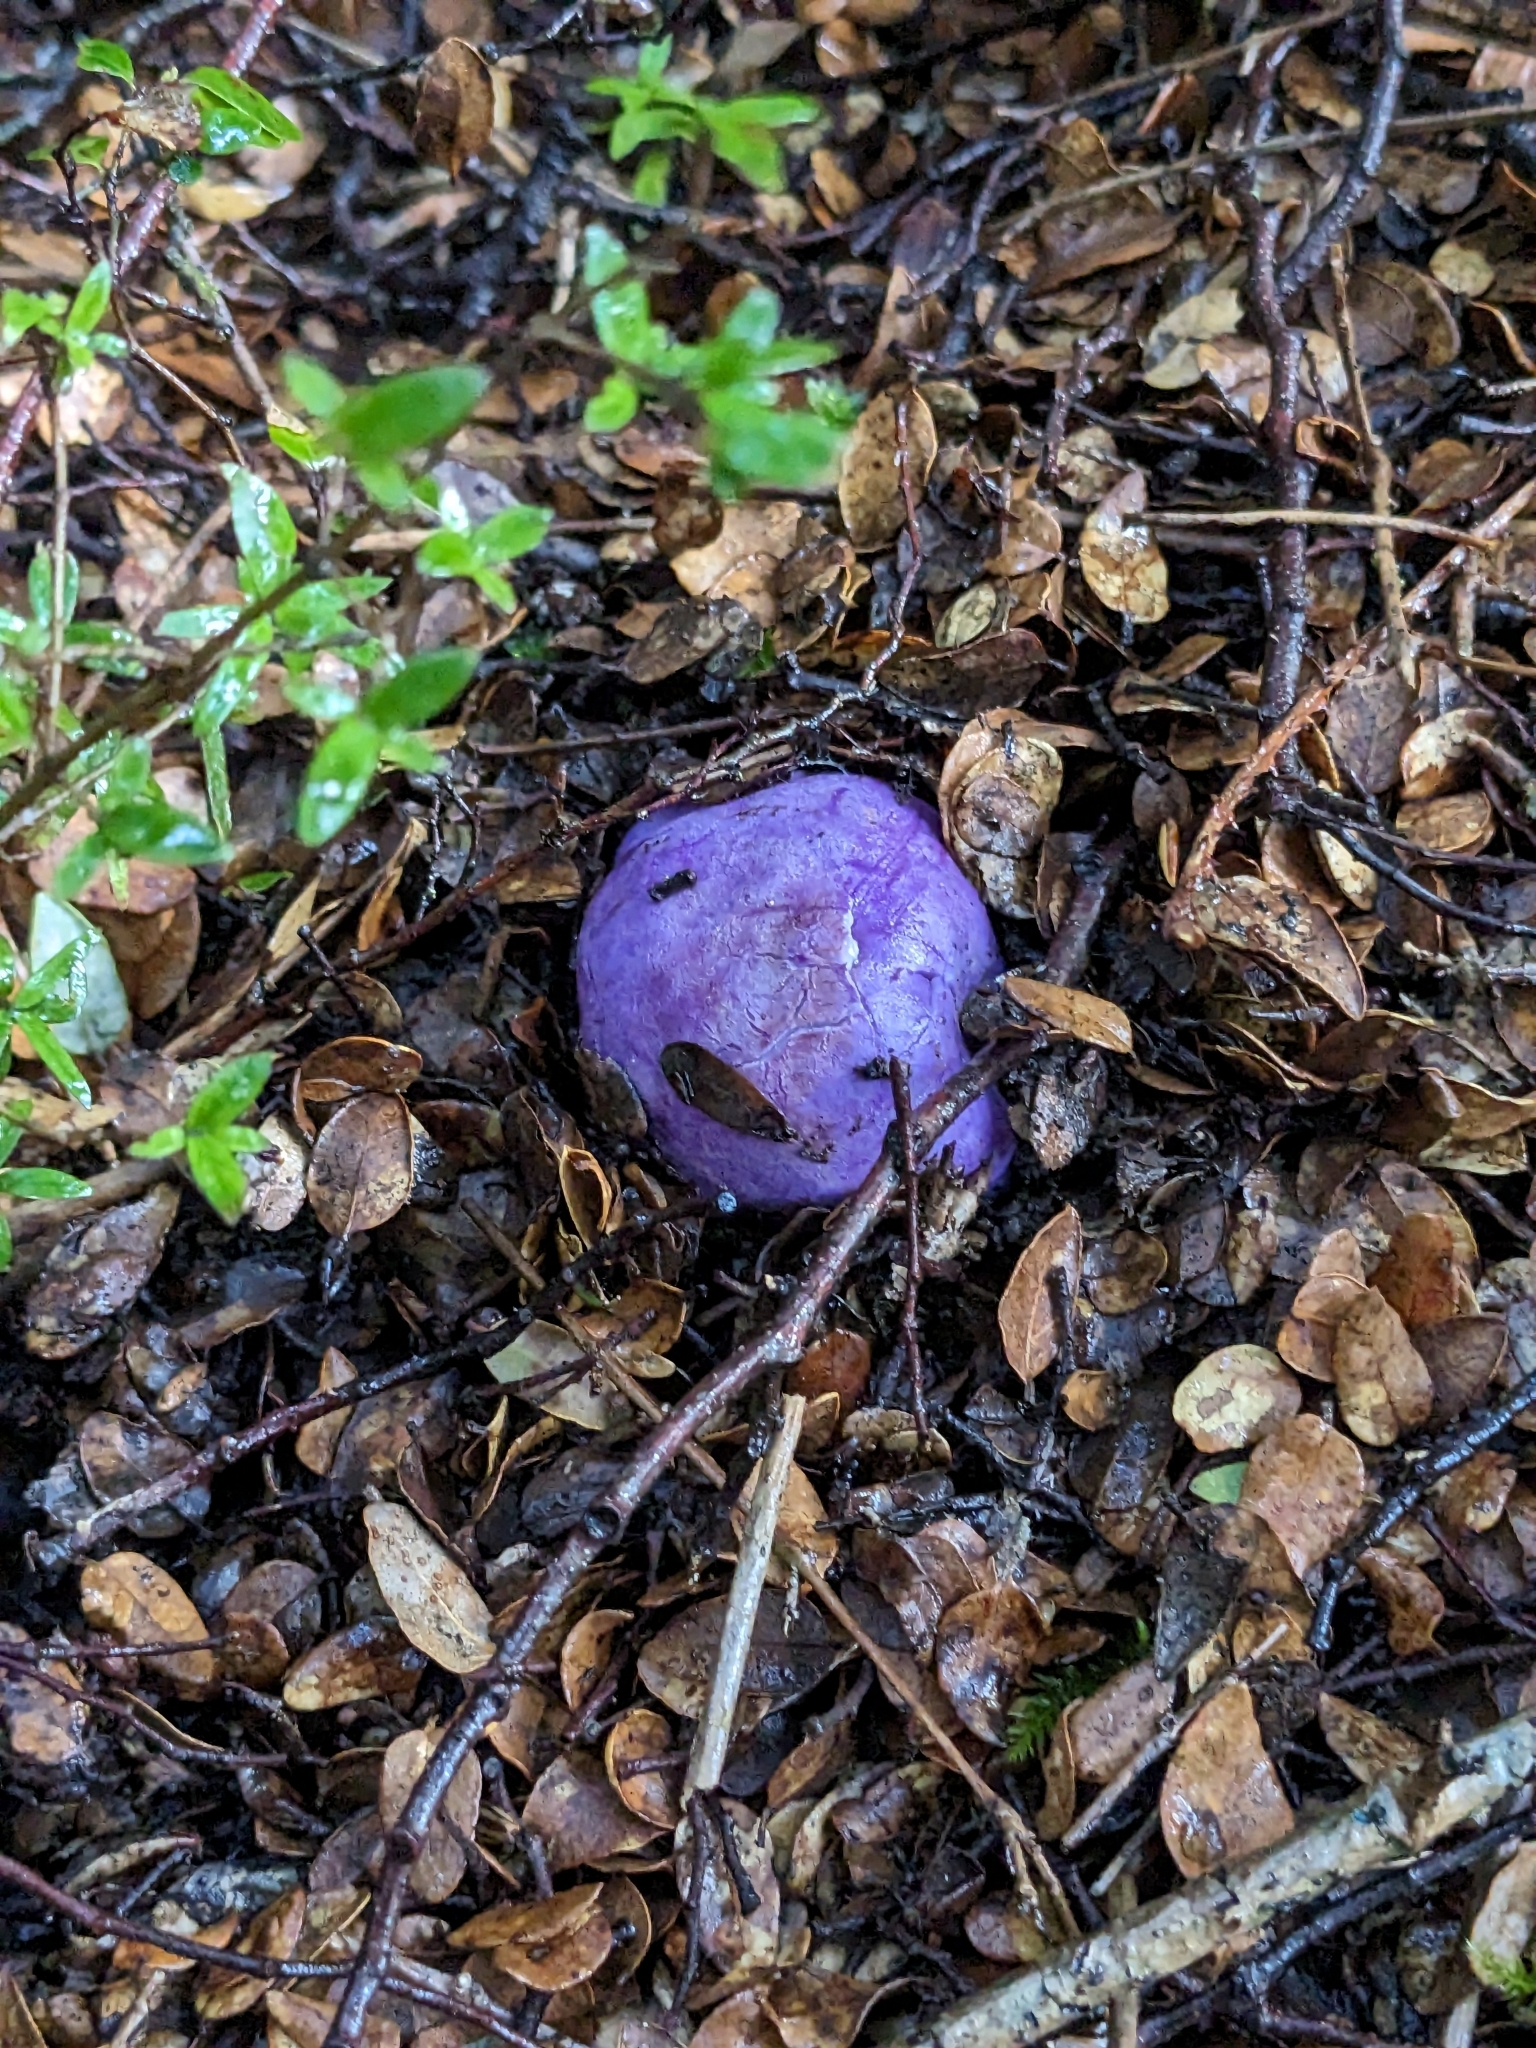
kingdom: Fungi
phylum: Basidiomycota
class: Agaricomycetes
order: Hysterangiales
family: Gallaceaceae
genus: Gallacea
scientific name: Gallacea scleroderma
